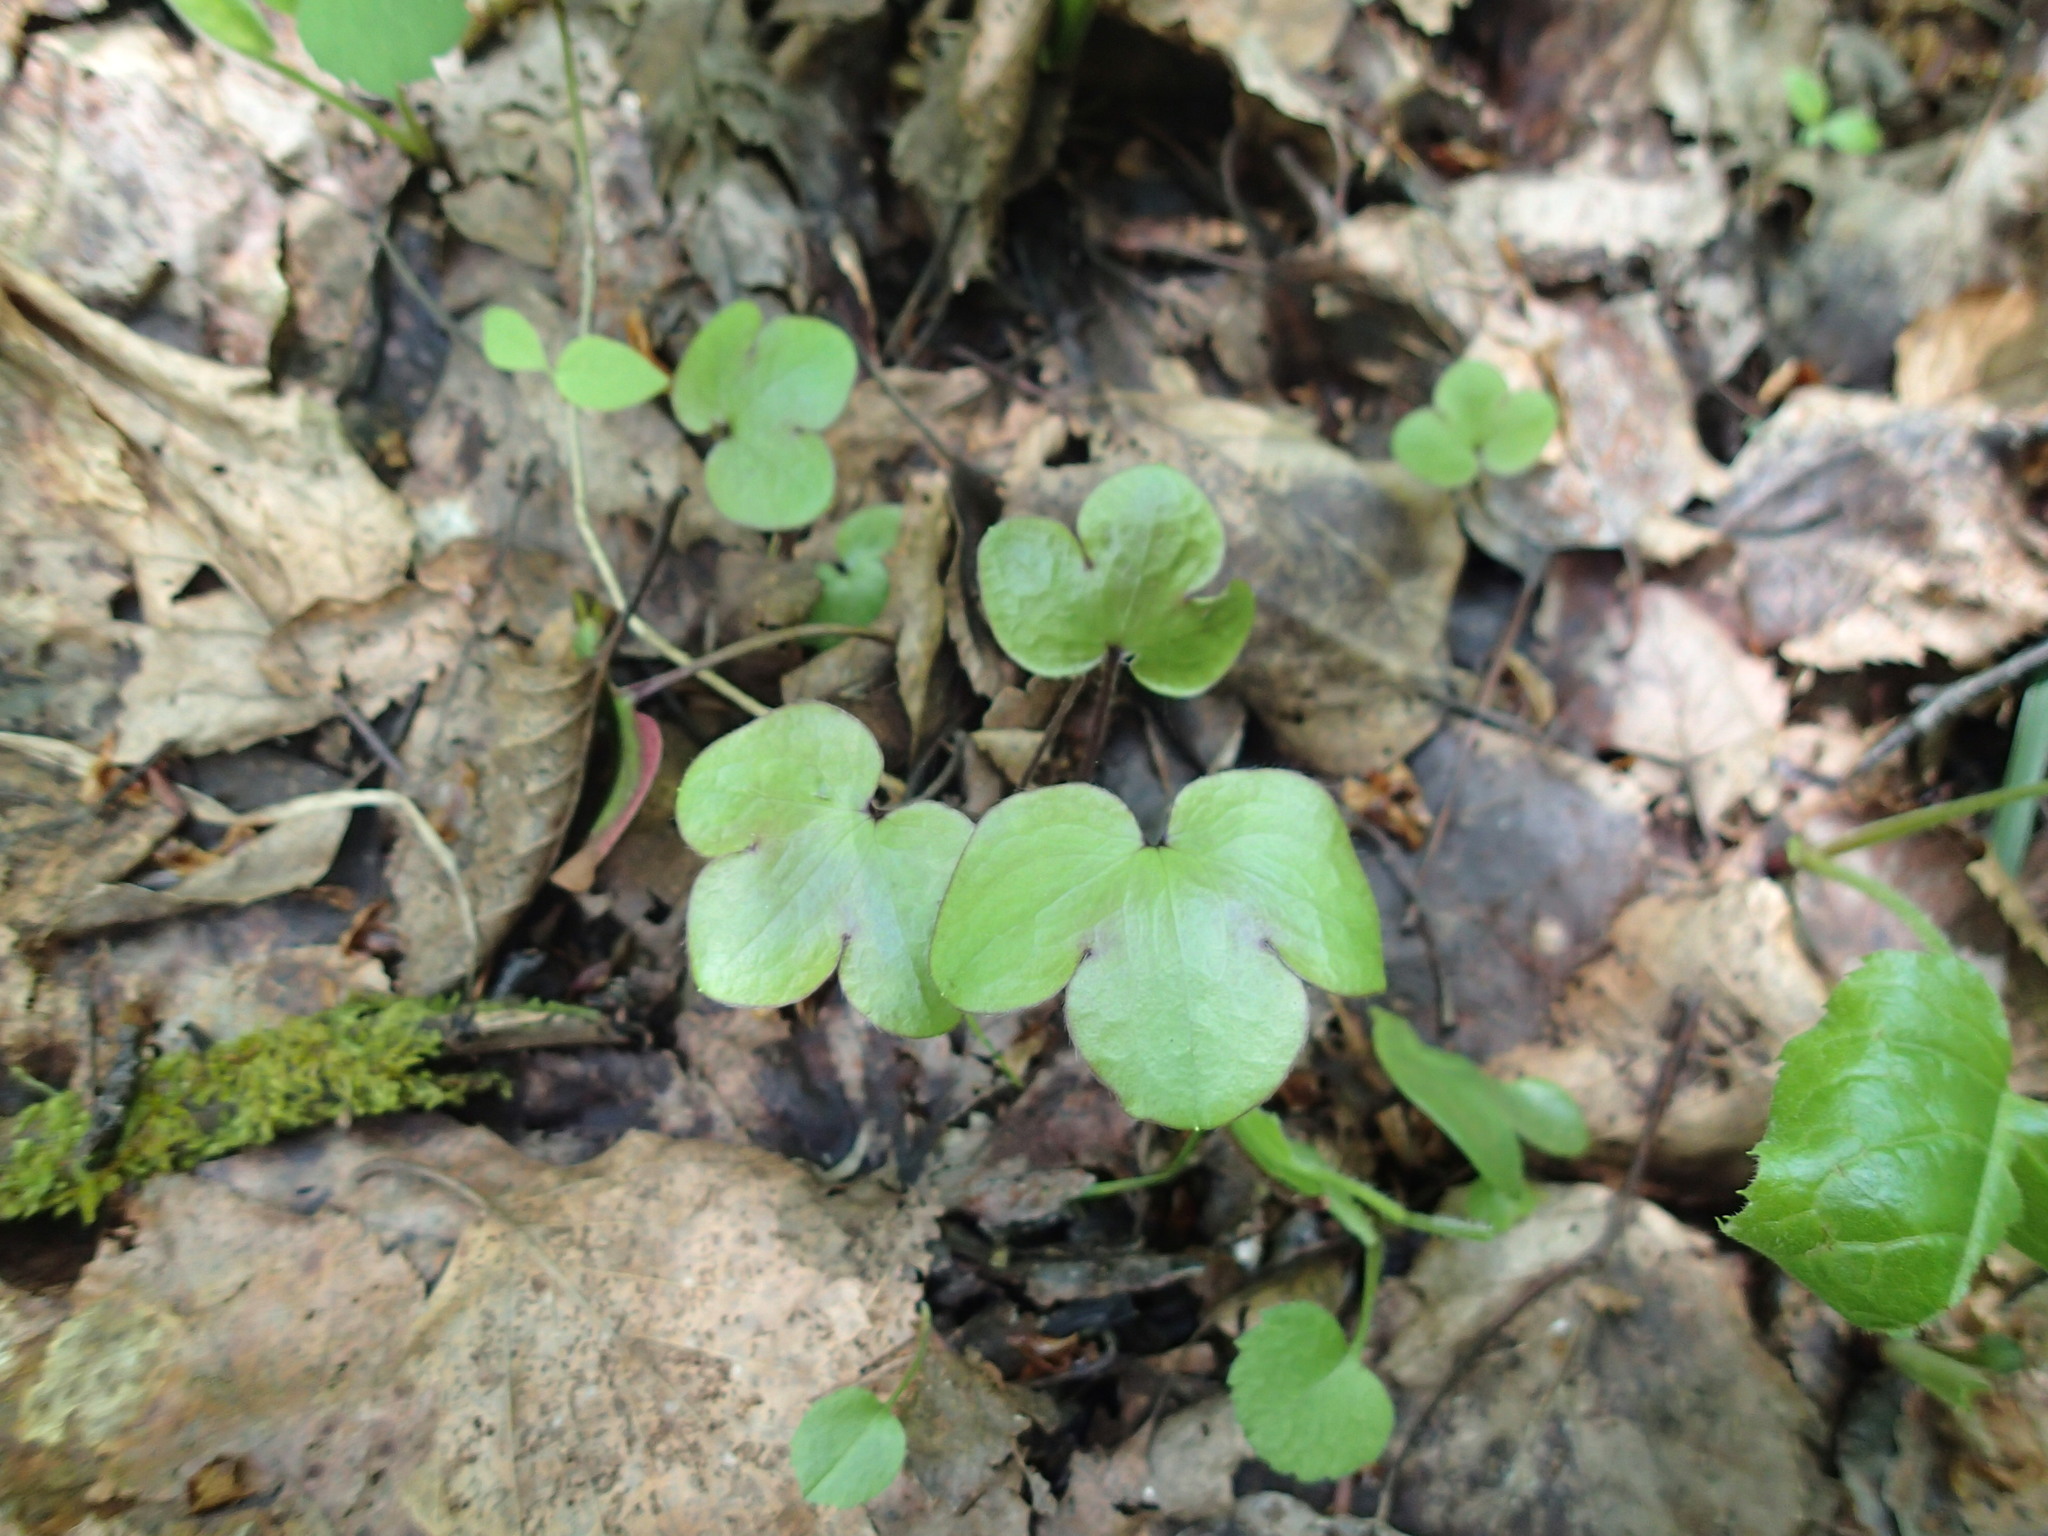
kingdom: Plantae
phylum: Tracheophyta
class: Magnoliopsida
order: Ranunculales
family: Ranunculaceae
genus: Hepatica
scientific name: Hepatica americana
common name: American hepatica
